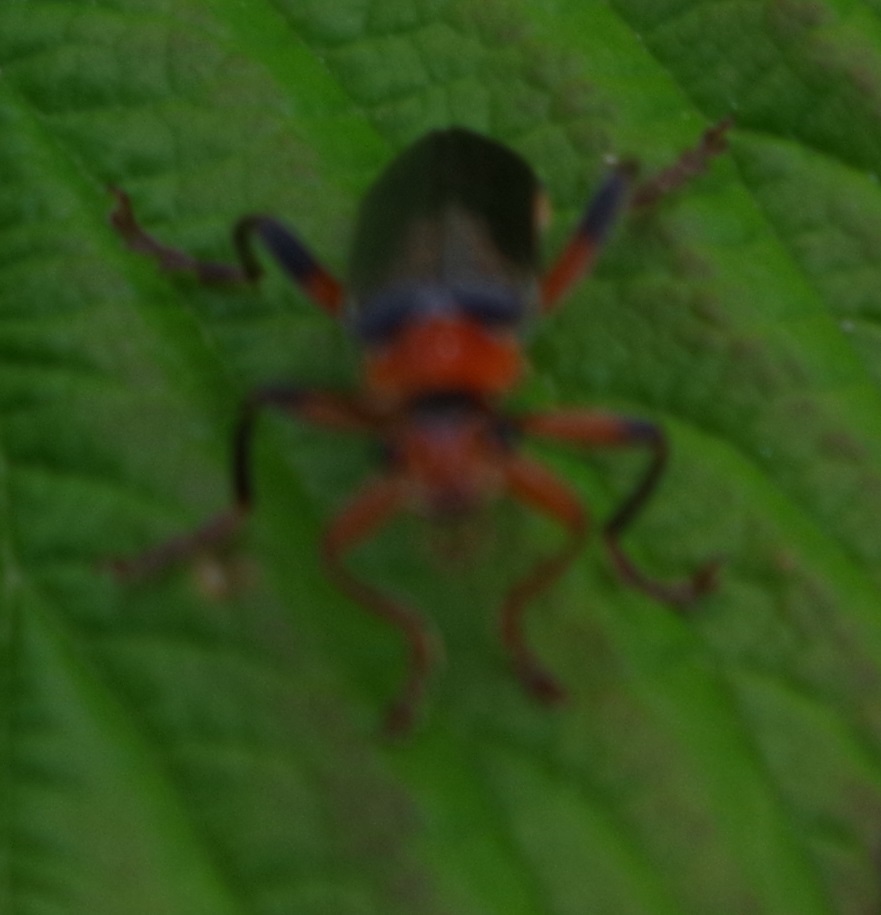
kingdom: Animalia
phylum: Arthropoda
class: Insecta
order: Coleoptera
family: Cantharidae
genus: Cantharis
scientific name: Cantharis livida
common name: Livid soldier beetle
